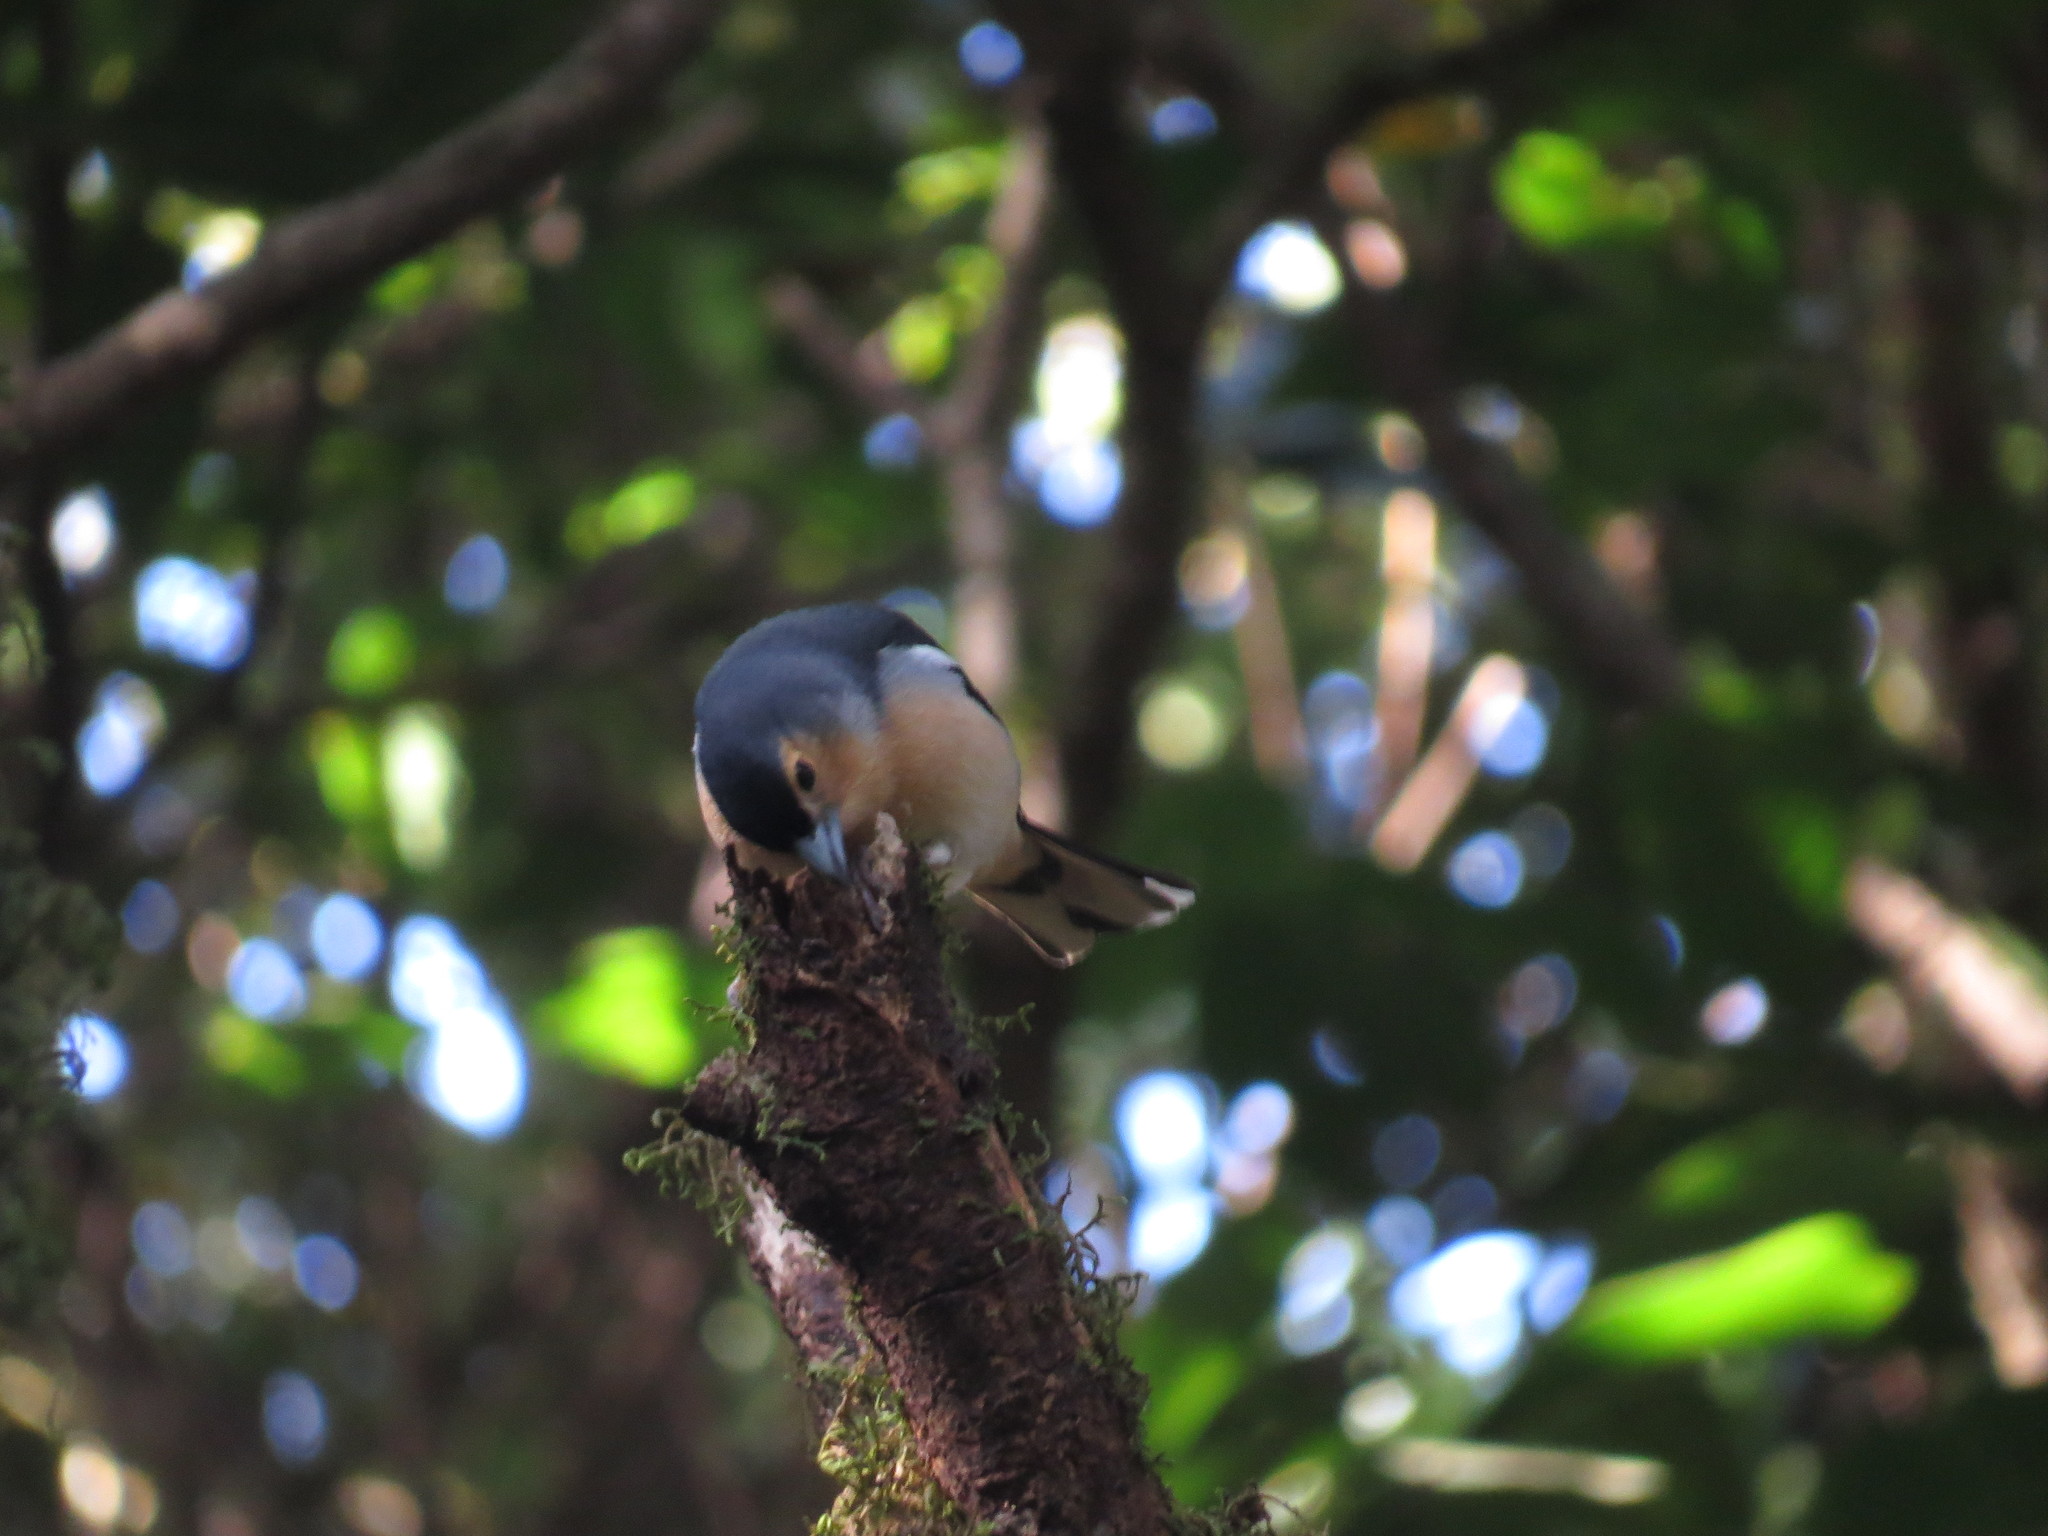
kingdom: Animalia
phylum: Chordata
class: Aves
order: Passeriformes
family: Fringillidae
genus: Fringilla
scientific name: Fringilla canariensis
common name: Canary islands chaffinch
